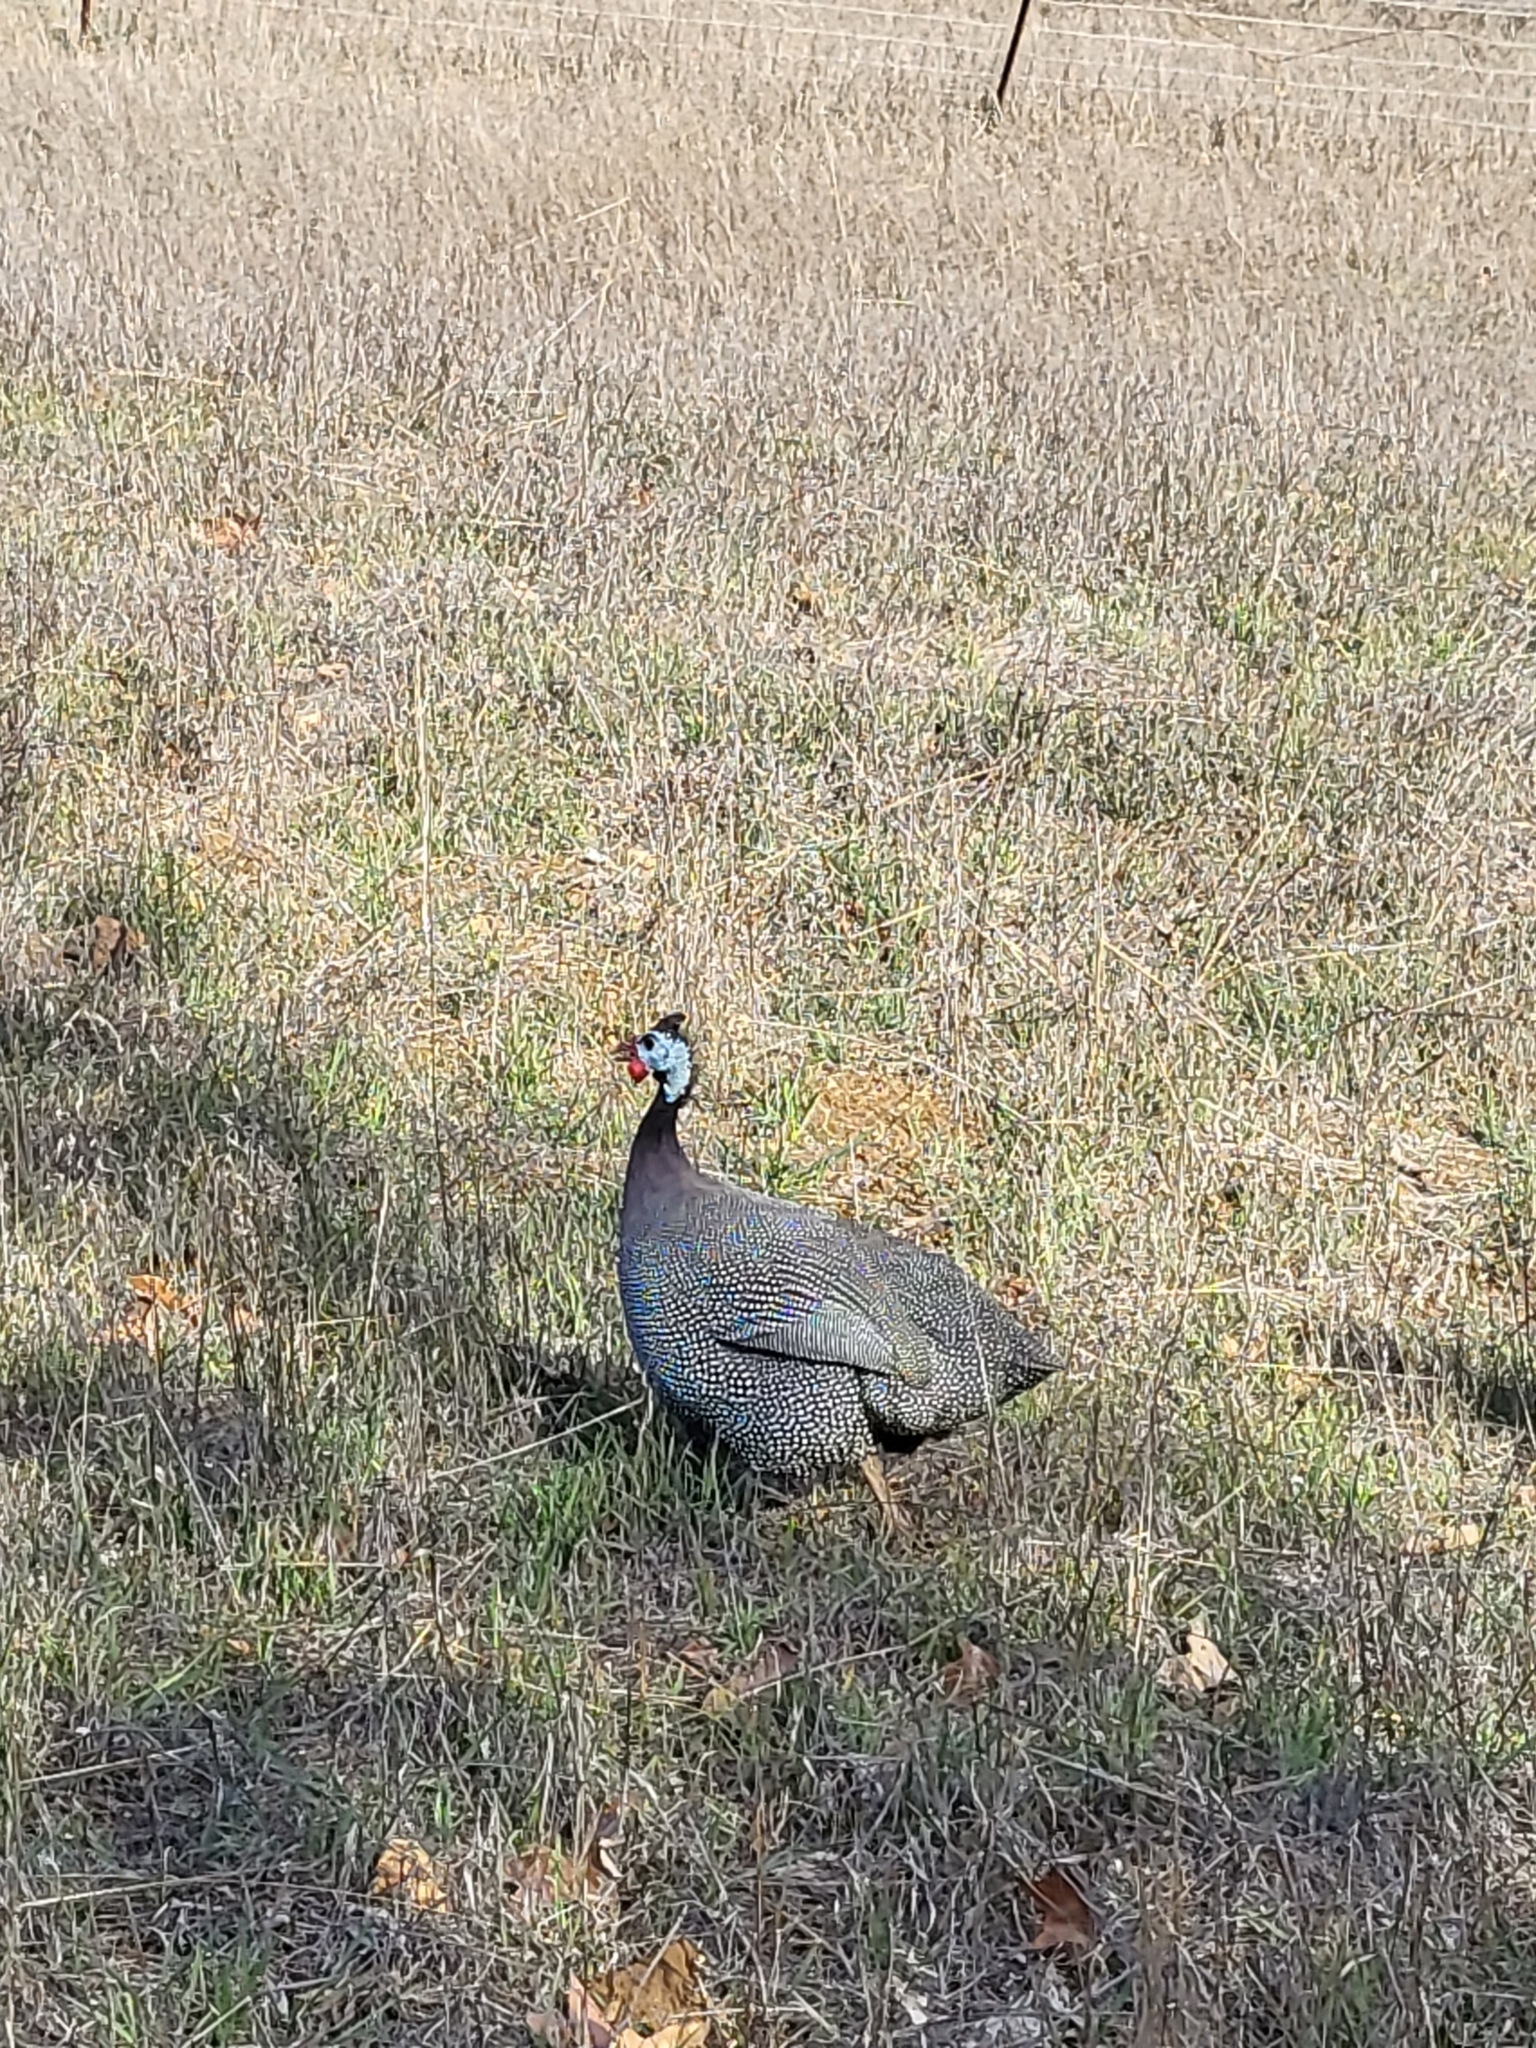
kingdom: Animalia
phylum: Chordata
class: Aves
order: Galliformes
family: Numididae
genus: Numida
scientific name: Numida meleagris
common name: Helmeted guineafowl
